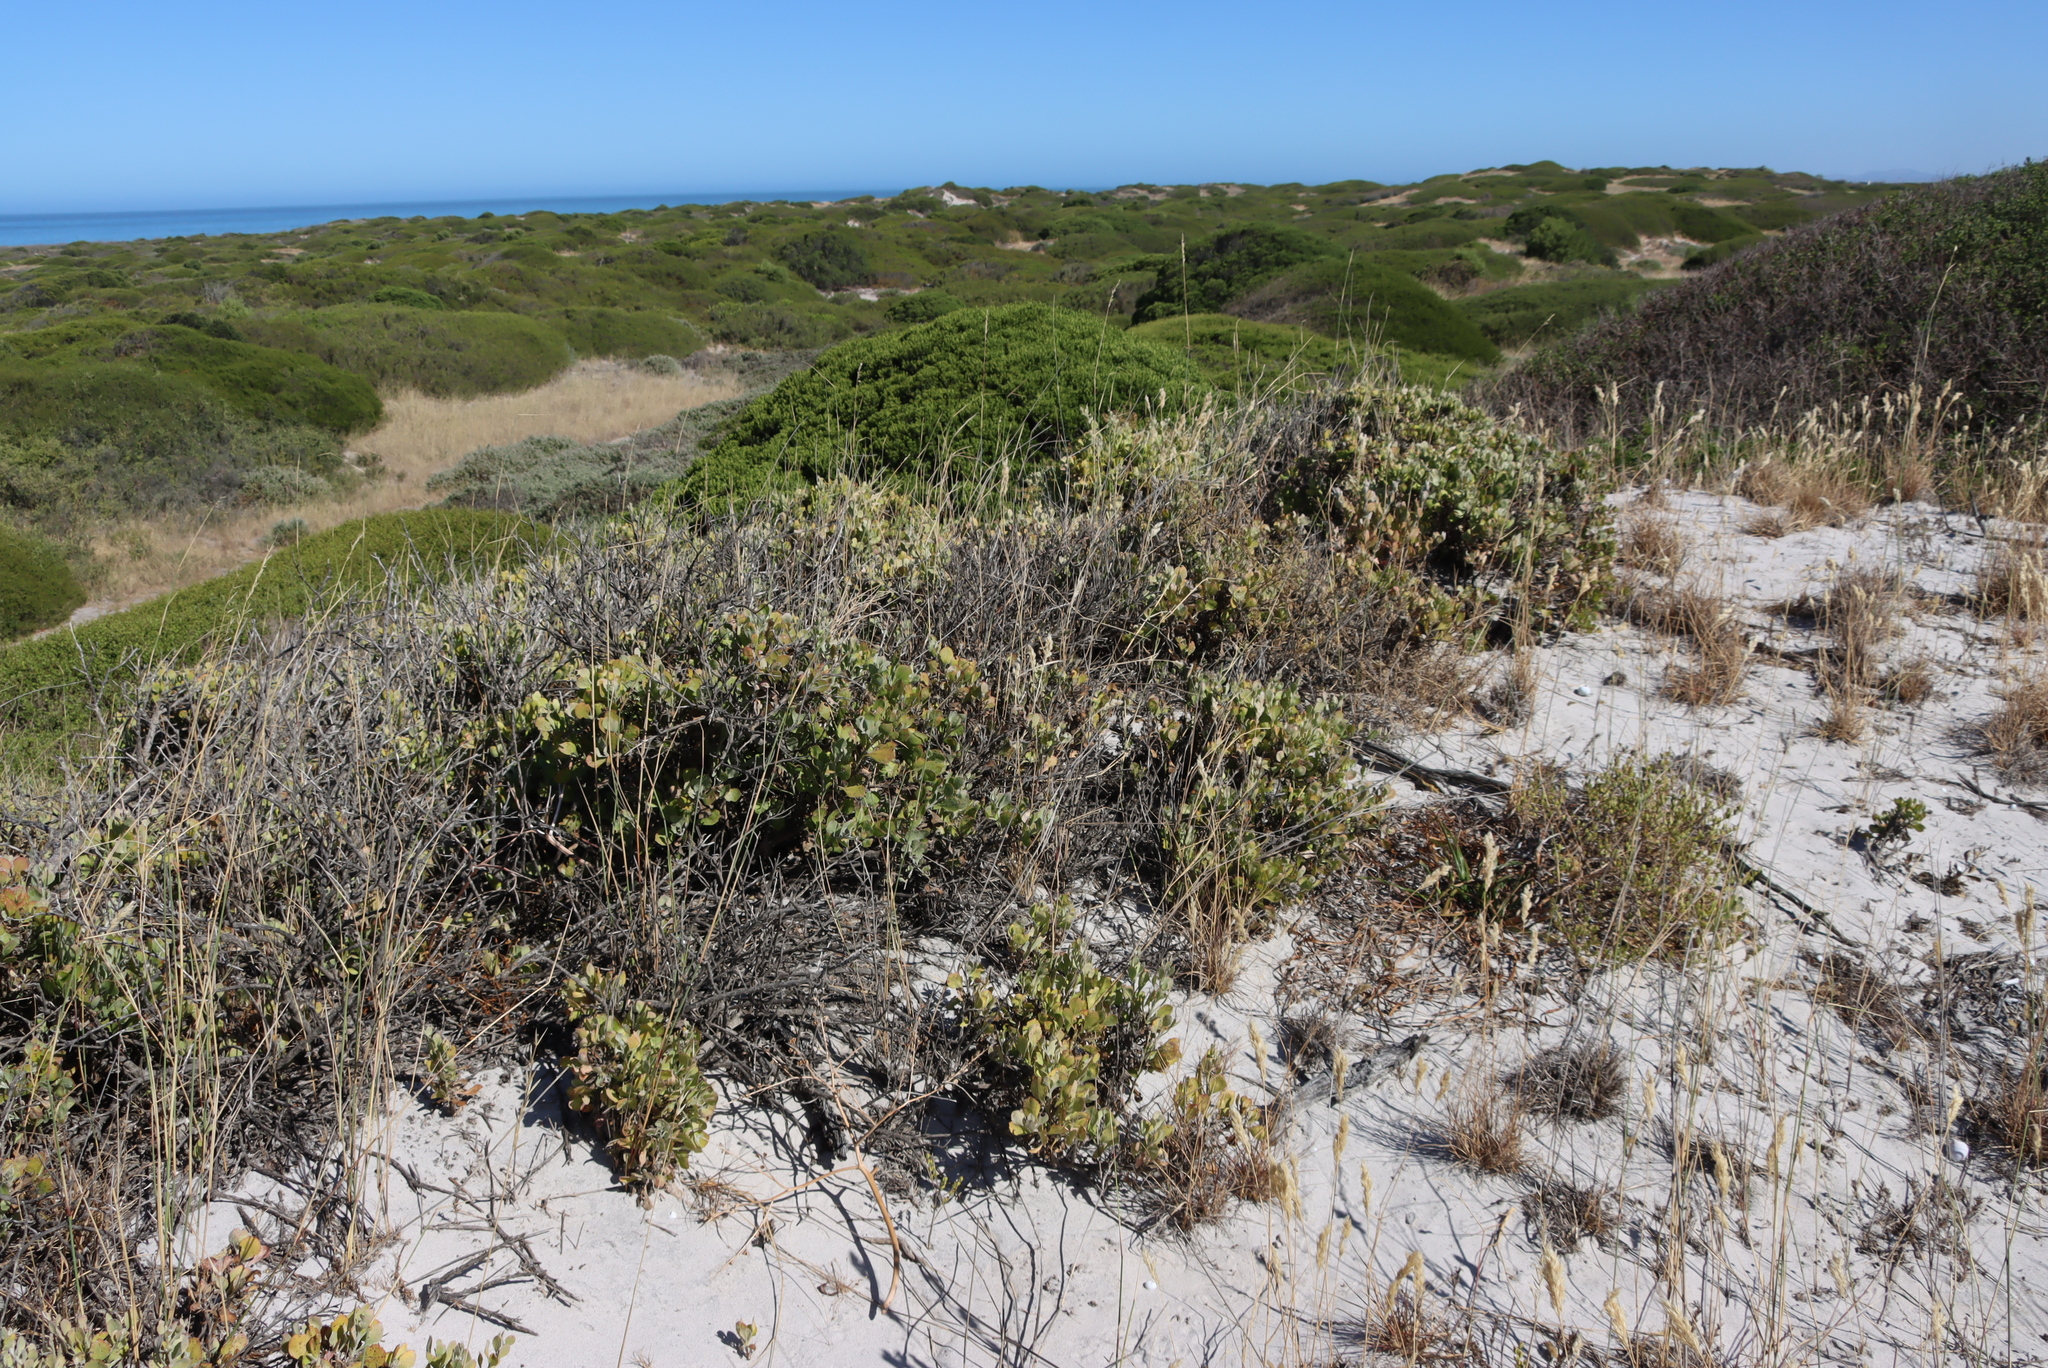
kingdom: Plantae
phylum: Tracheophyta
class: Magnoliopsida
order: Asterales
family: Asteraceae
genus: Osteospermum
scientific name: Osteospermum incanum
